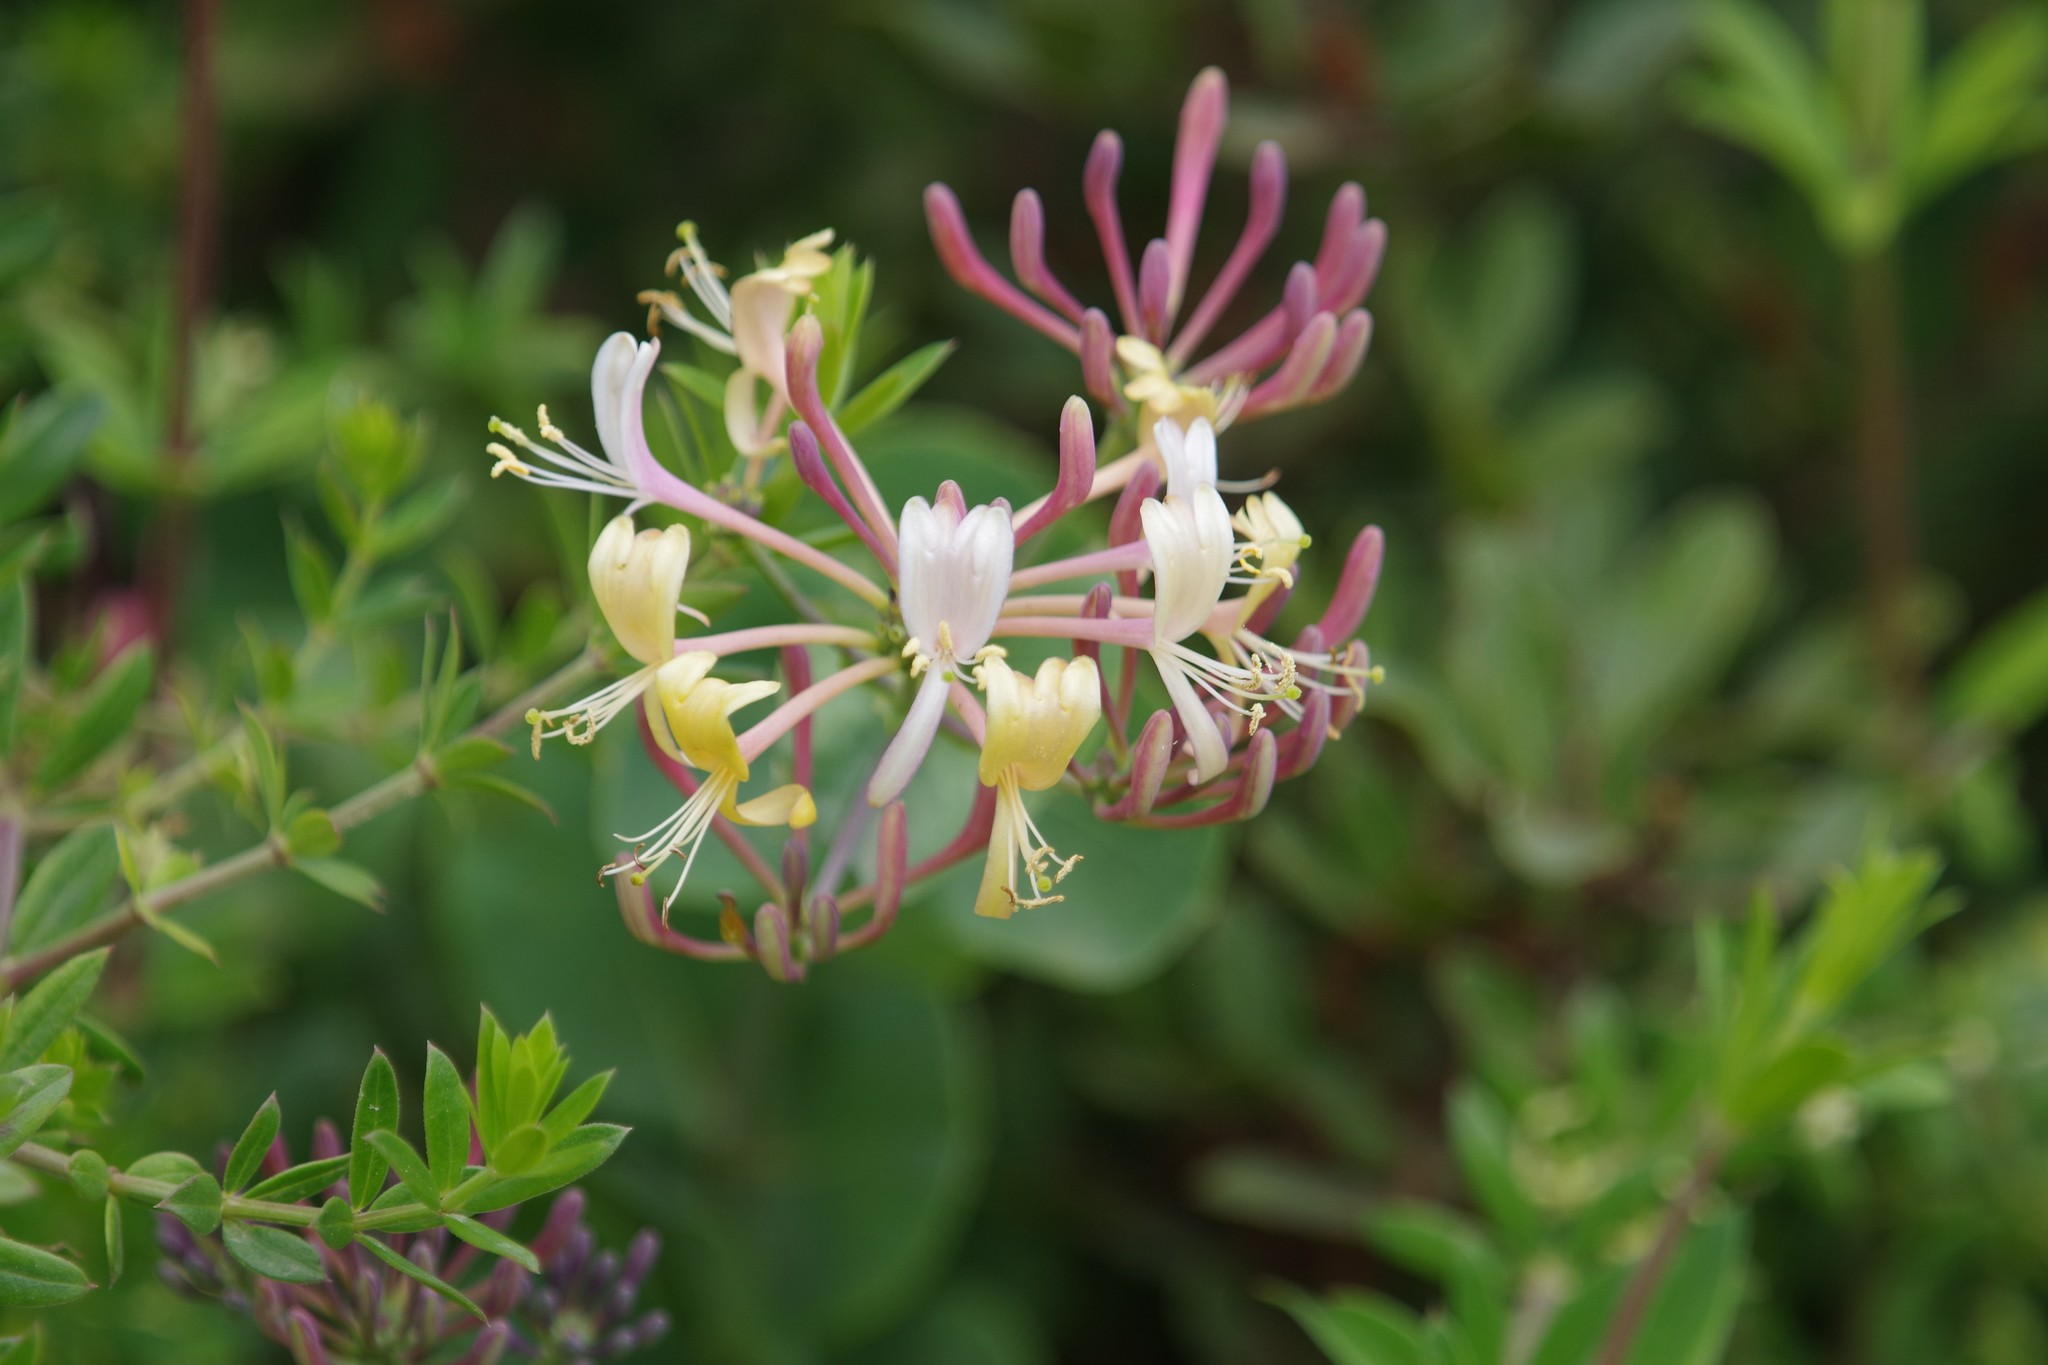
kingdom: Plantae
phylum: Tracheophyta
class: Magnoliopsida
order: Dipsacales
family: Caprifoliaceae
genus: Lonicera
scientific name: Lonicera etrusca
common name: Etruscan honeysuckle
